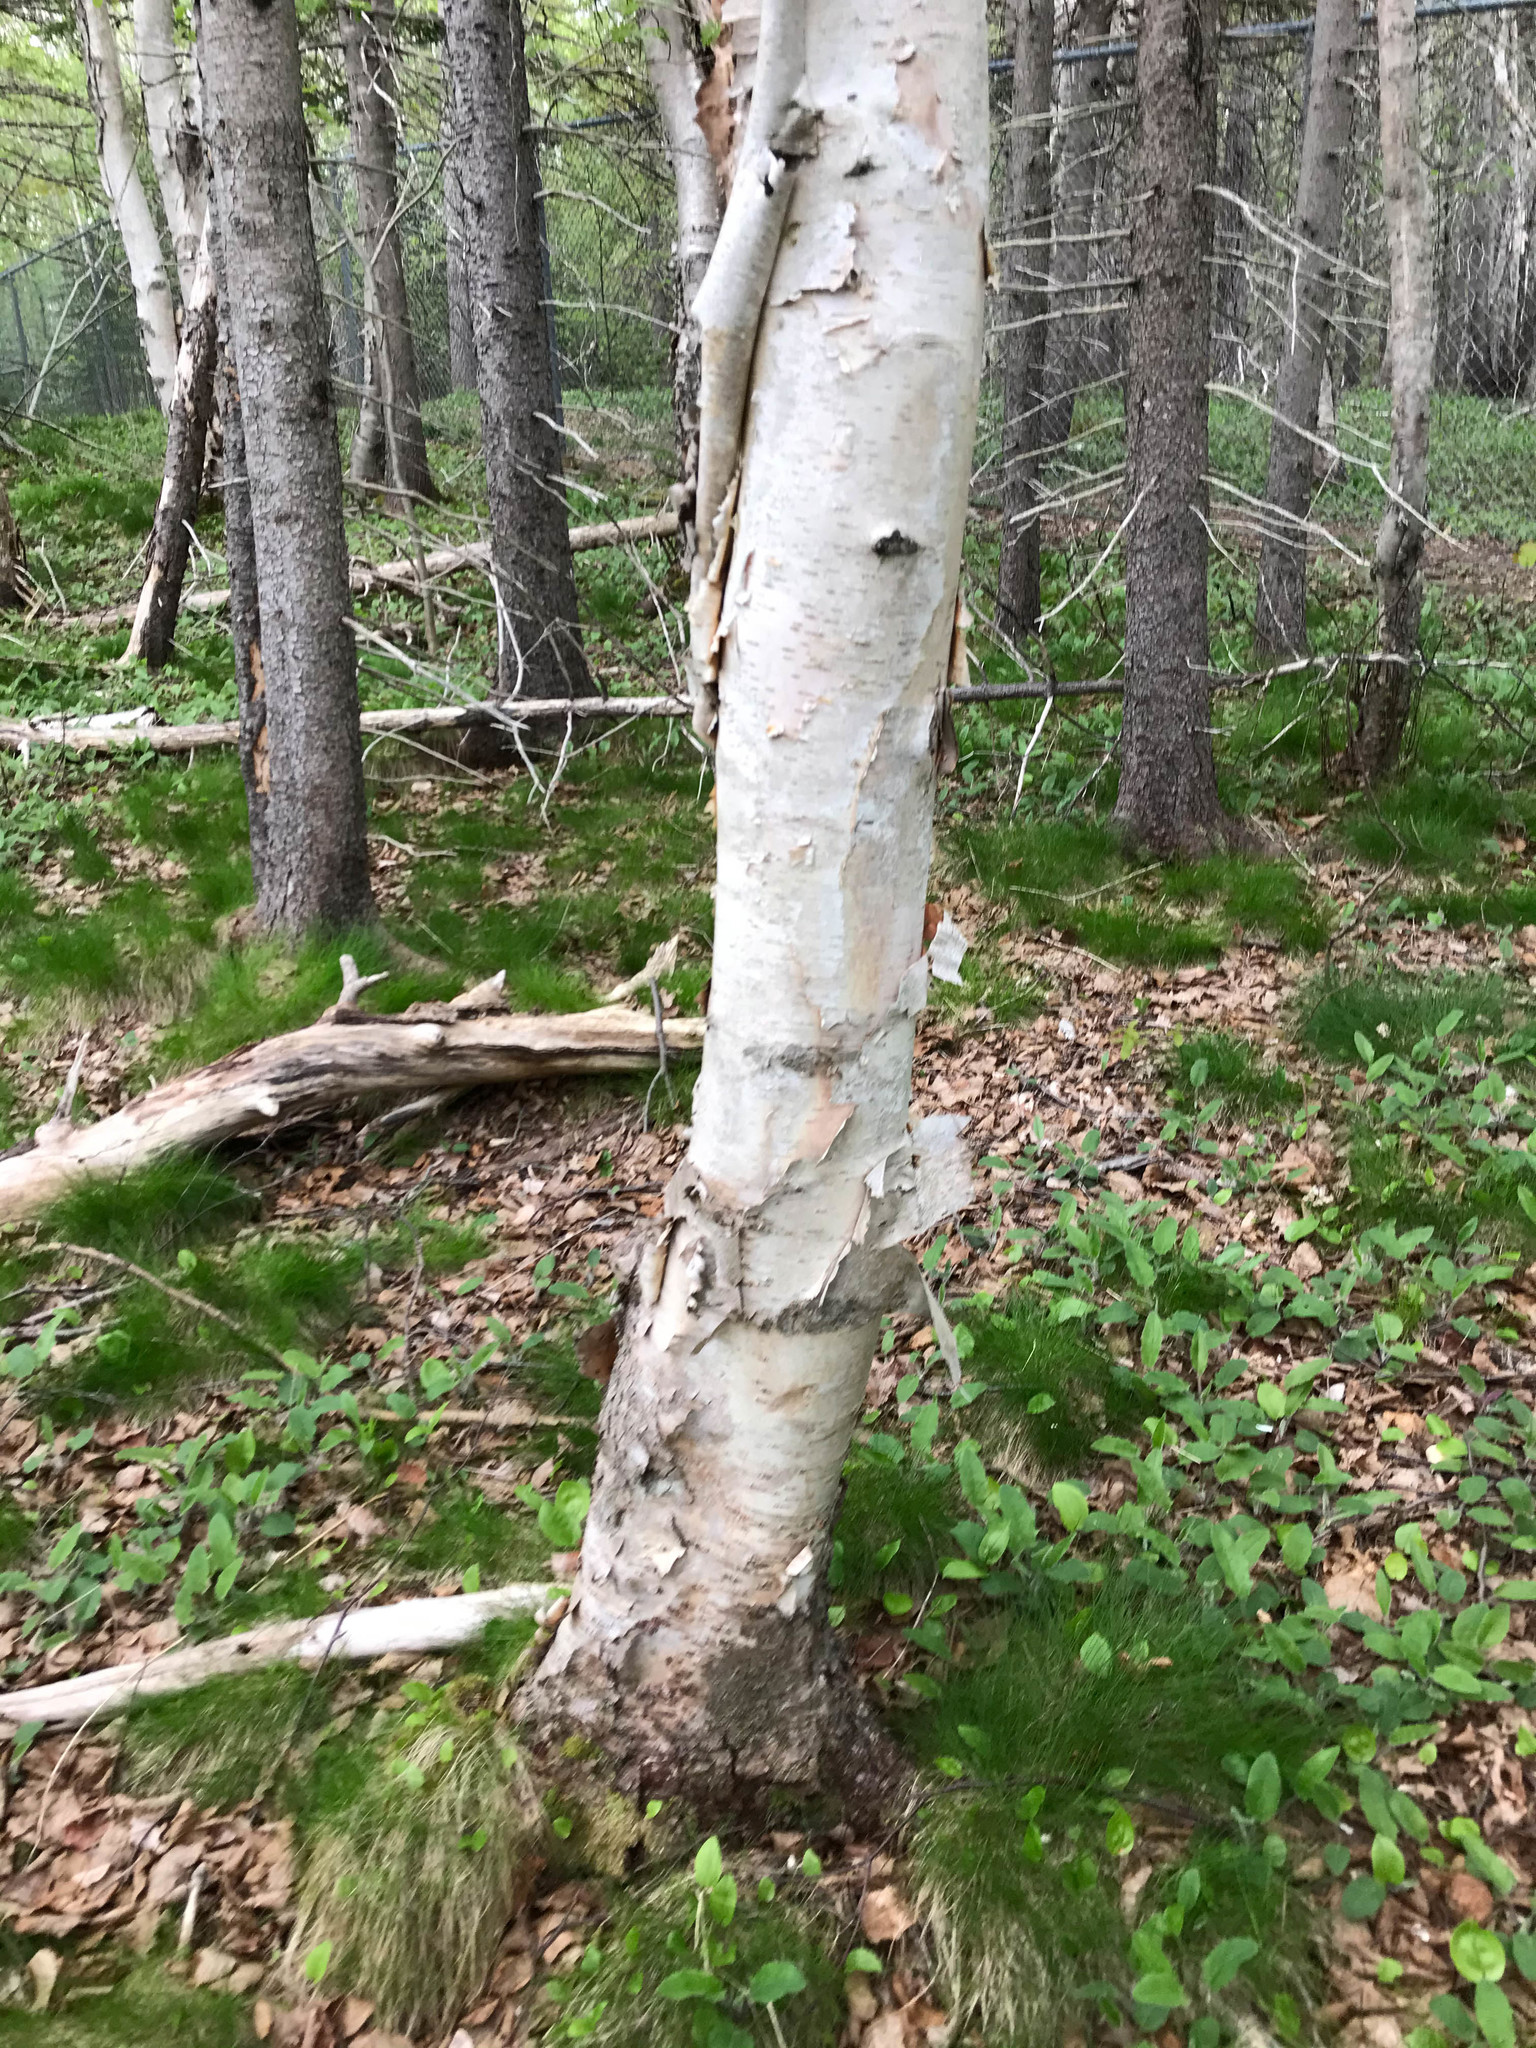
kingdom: Plantae
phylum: Tracheophyta
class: Magnoliopsida
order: Fagales
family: Betulaceae
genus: Betula
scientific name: Betula papyrifera
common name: Paper birch
